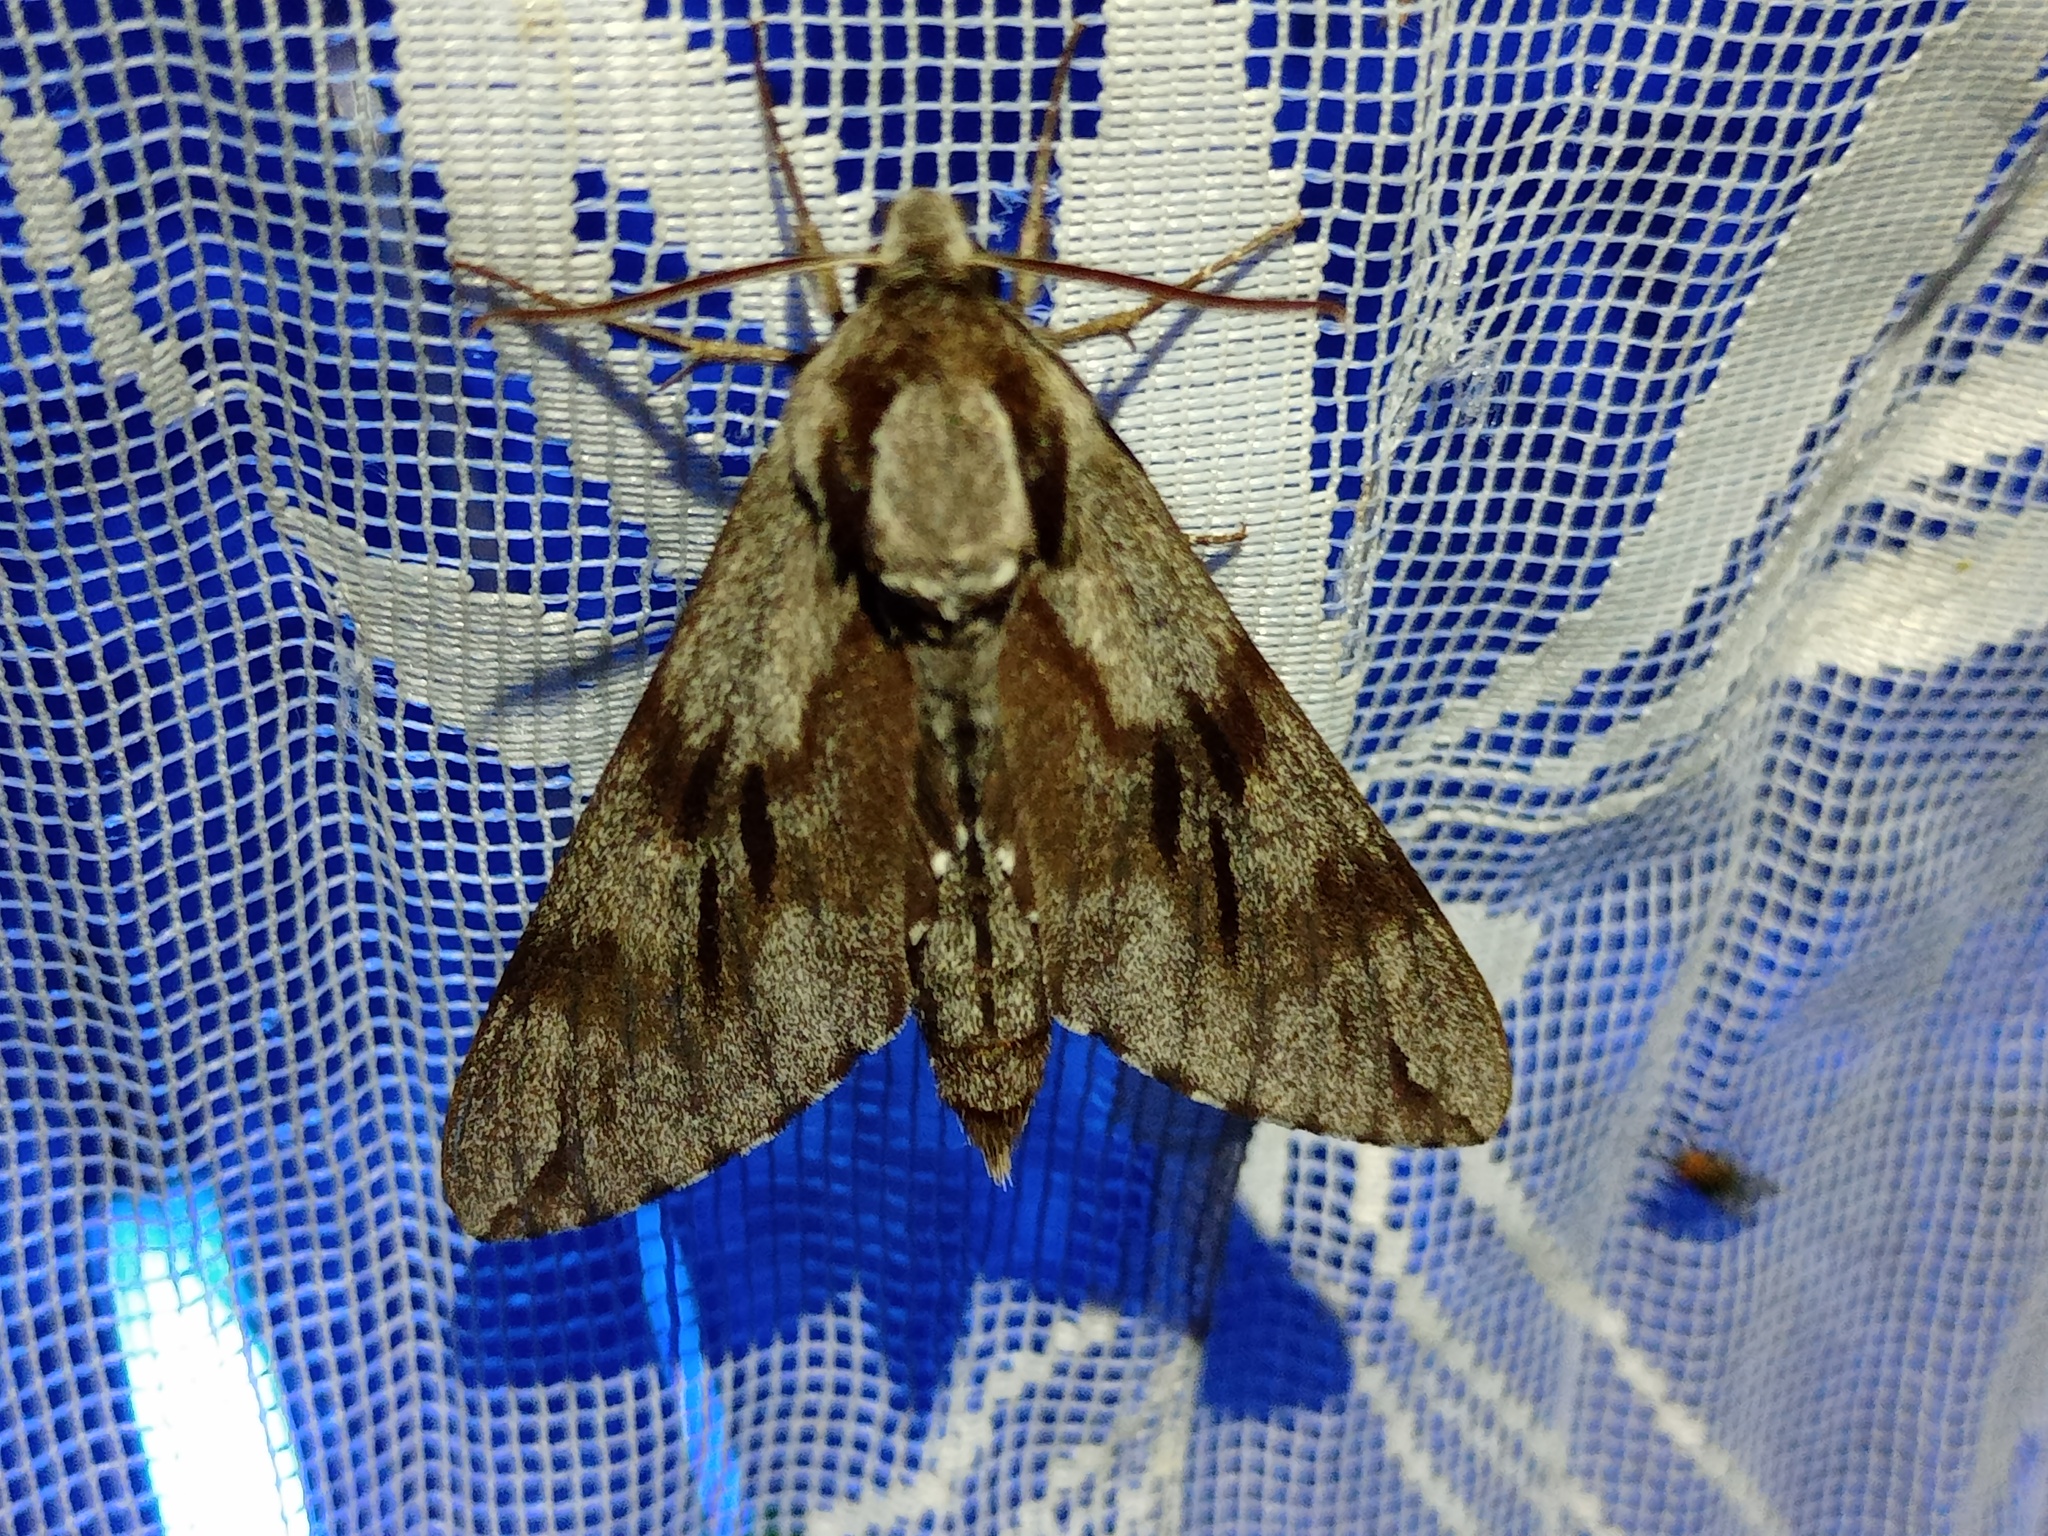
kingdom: Animalia
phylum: Arthropoda
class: Insecta
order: Lepidoptera
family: Sphingidae
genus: Sphinx
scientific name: Sphinx pinastri
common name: Pine hawk-moth
